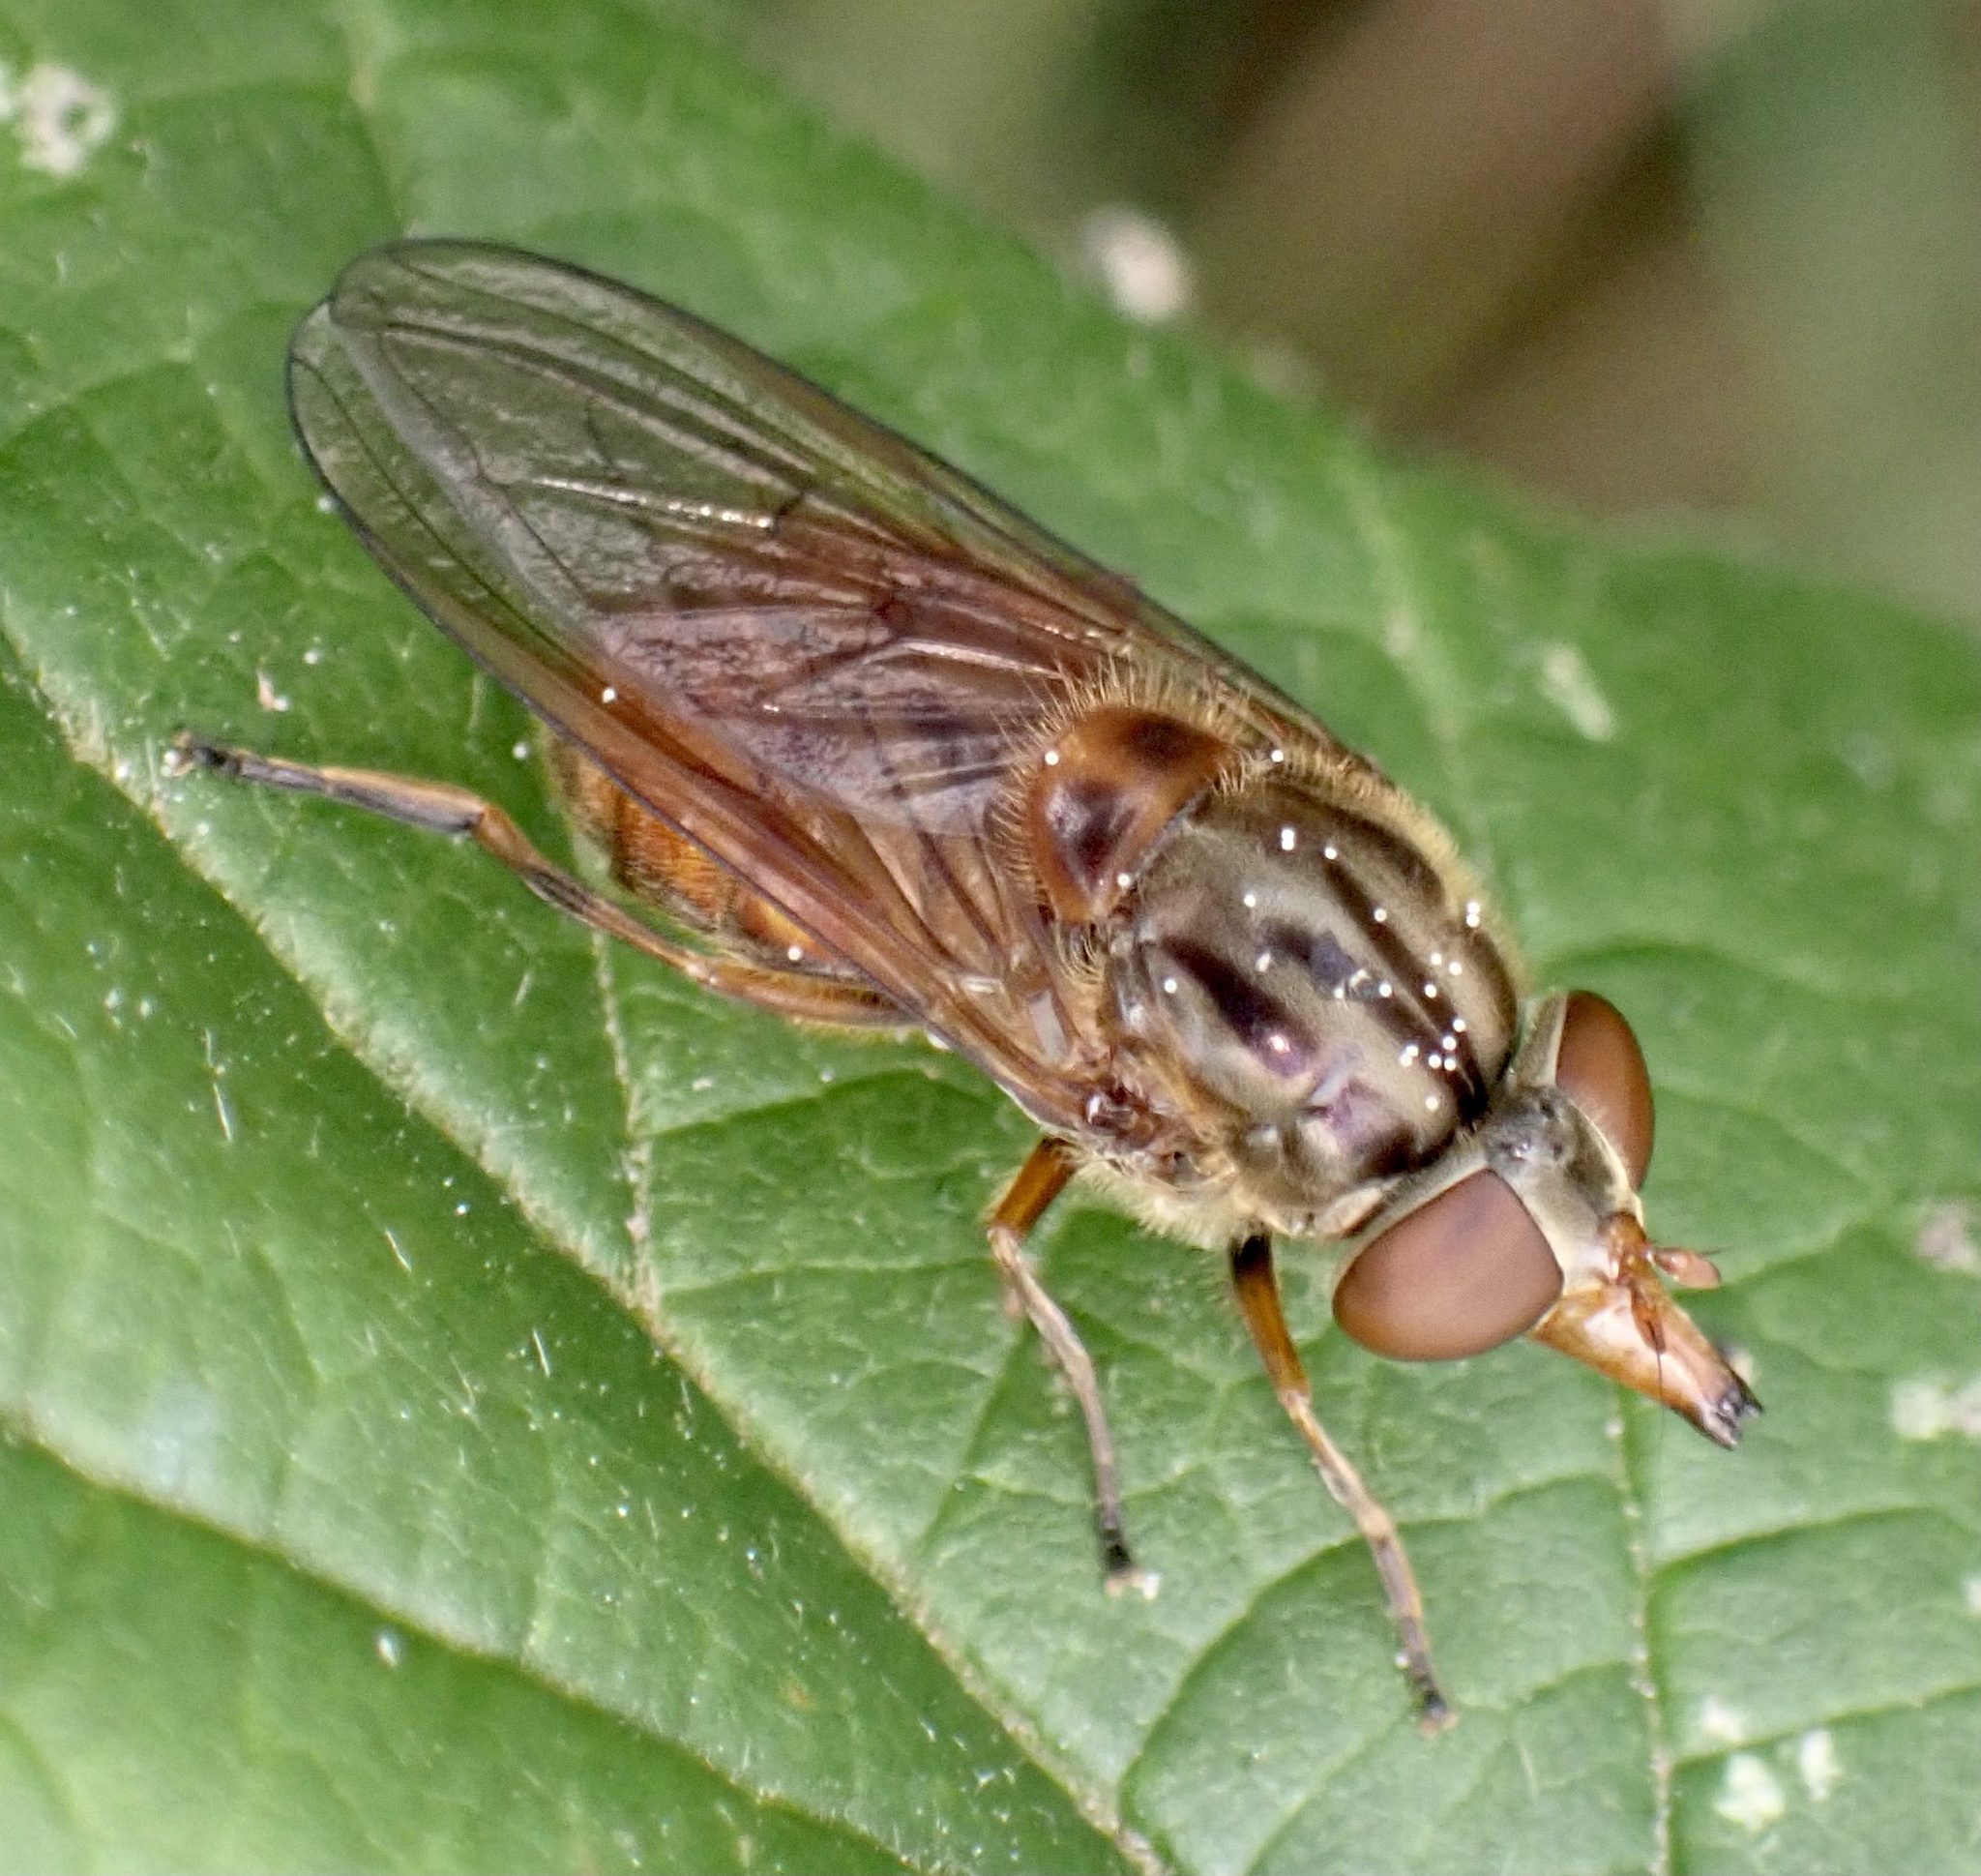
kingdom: Animalia
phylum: Arthropoda
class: Insecta
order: Diptera
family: Syrphidae
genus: Rhingia
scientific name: Rhingia campestris
